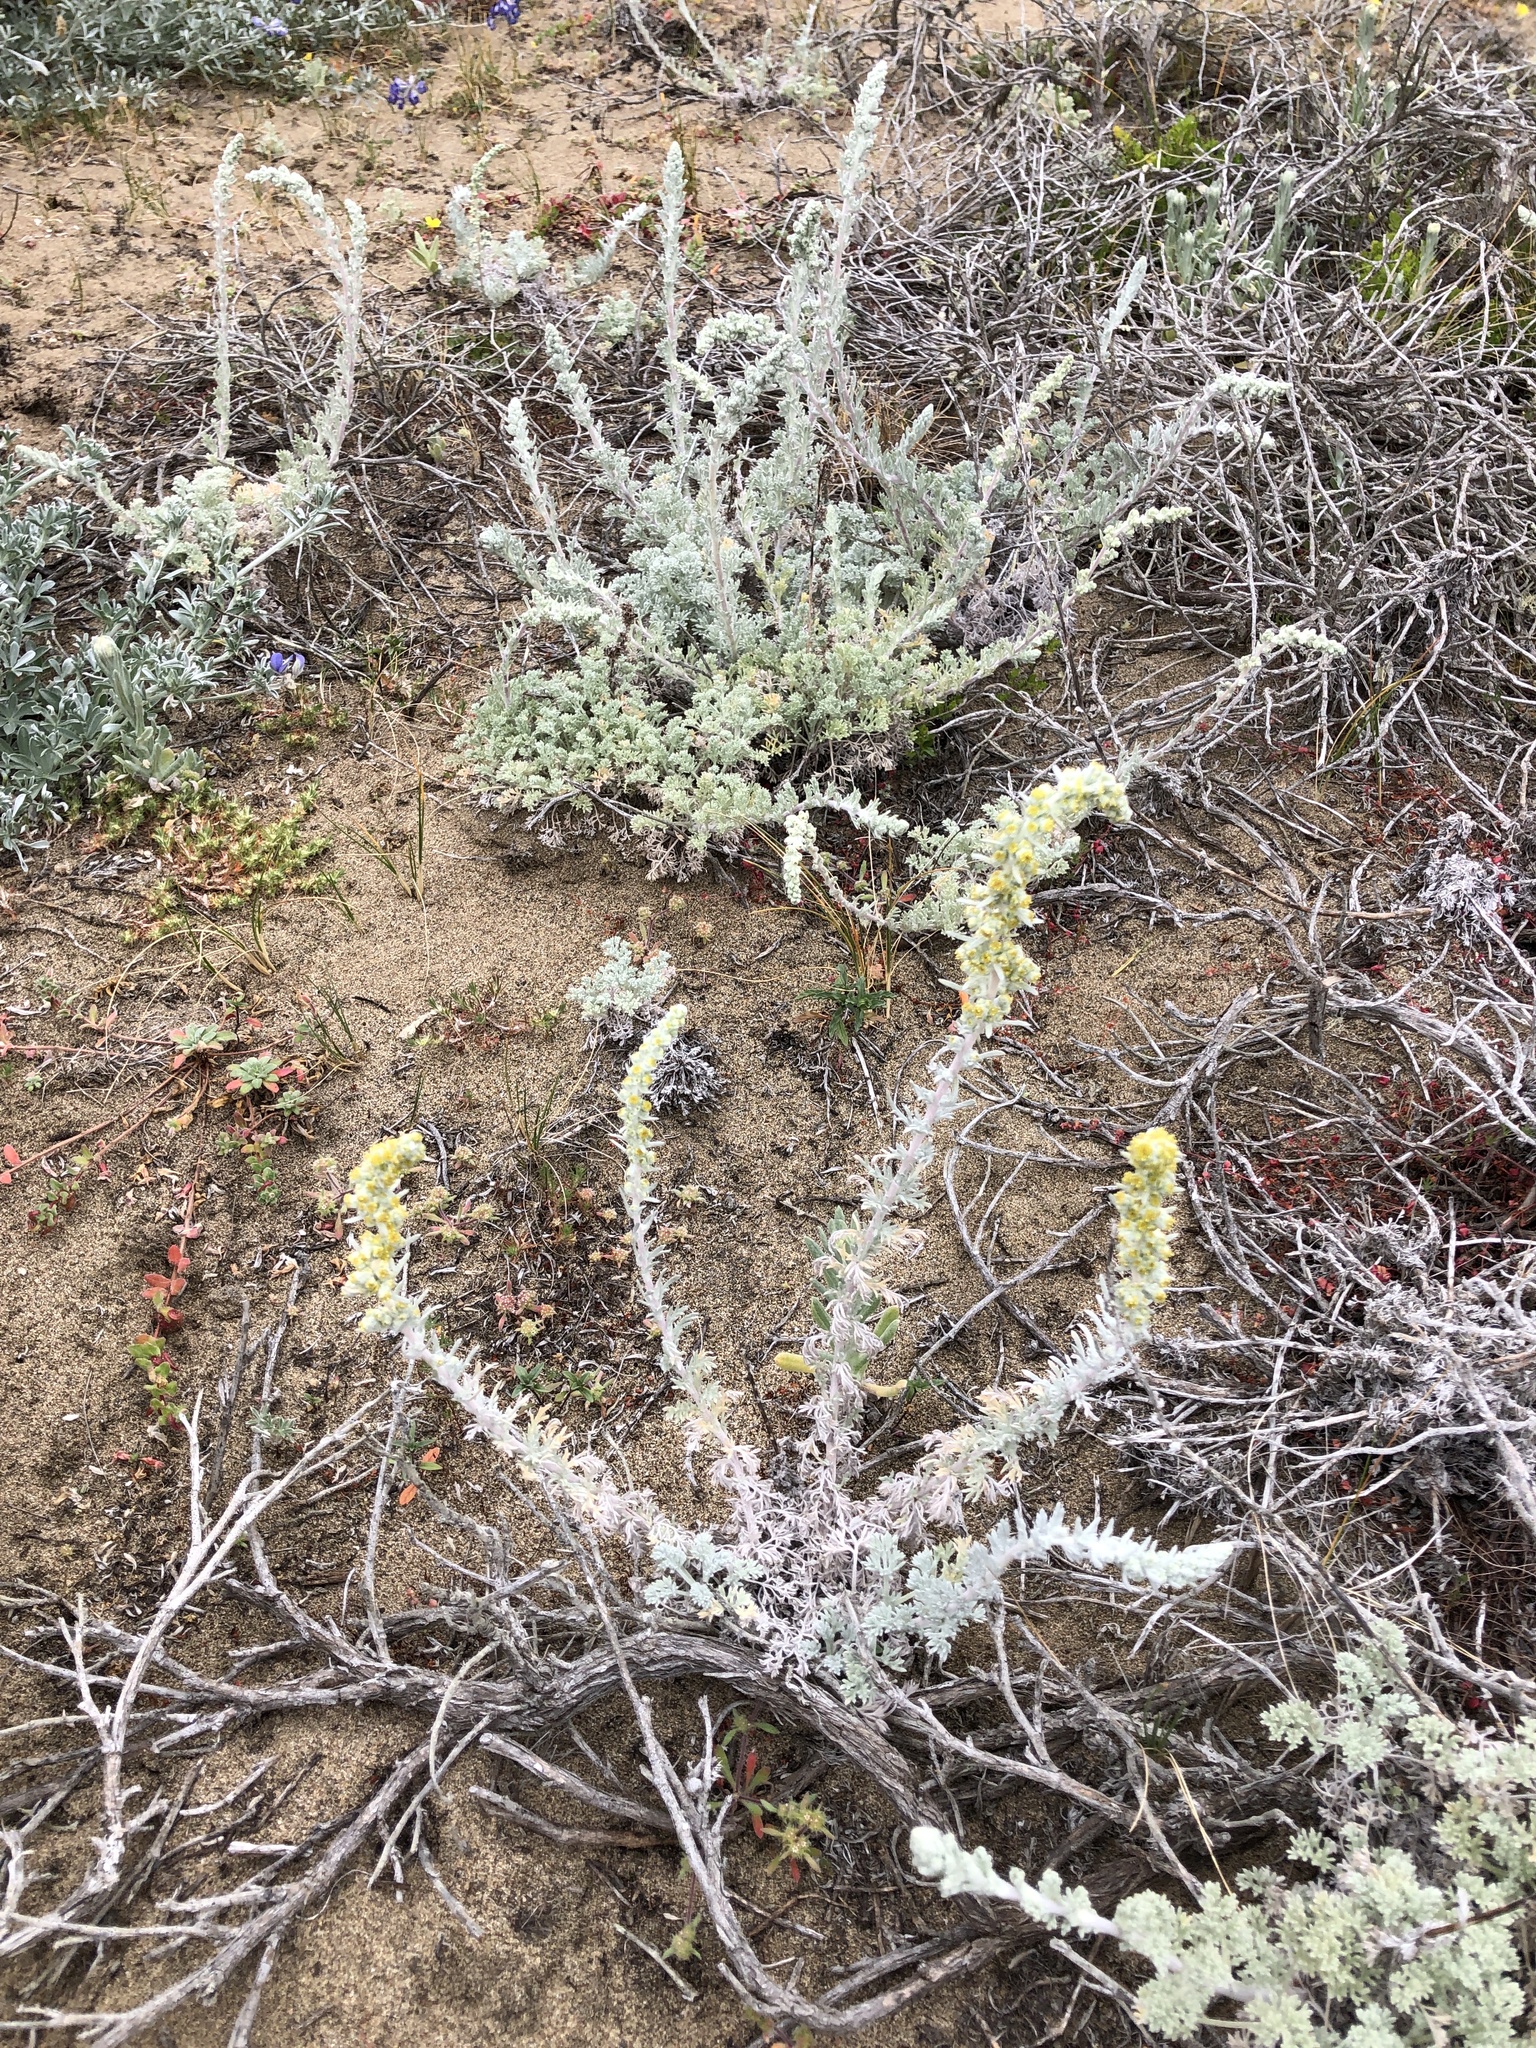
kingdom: Plantae
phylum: Tracheophyta
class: Magnoliopsida
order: Asterales
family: Asteraceae
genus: Artemisia
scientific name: Artemisia pycnocephala
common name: Coastal sagewort
